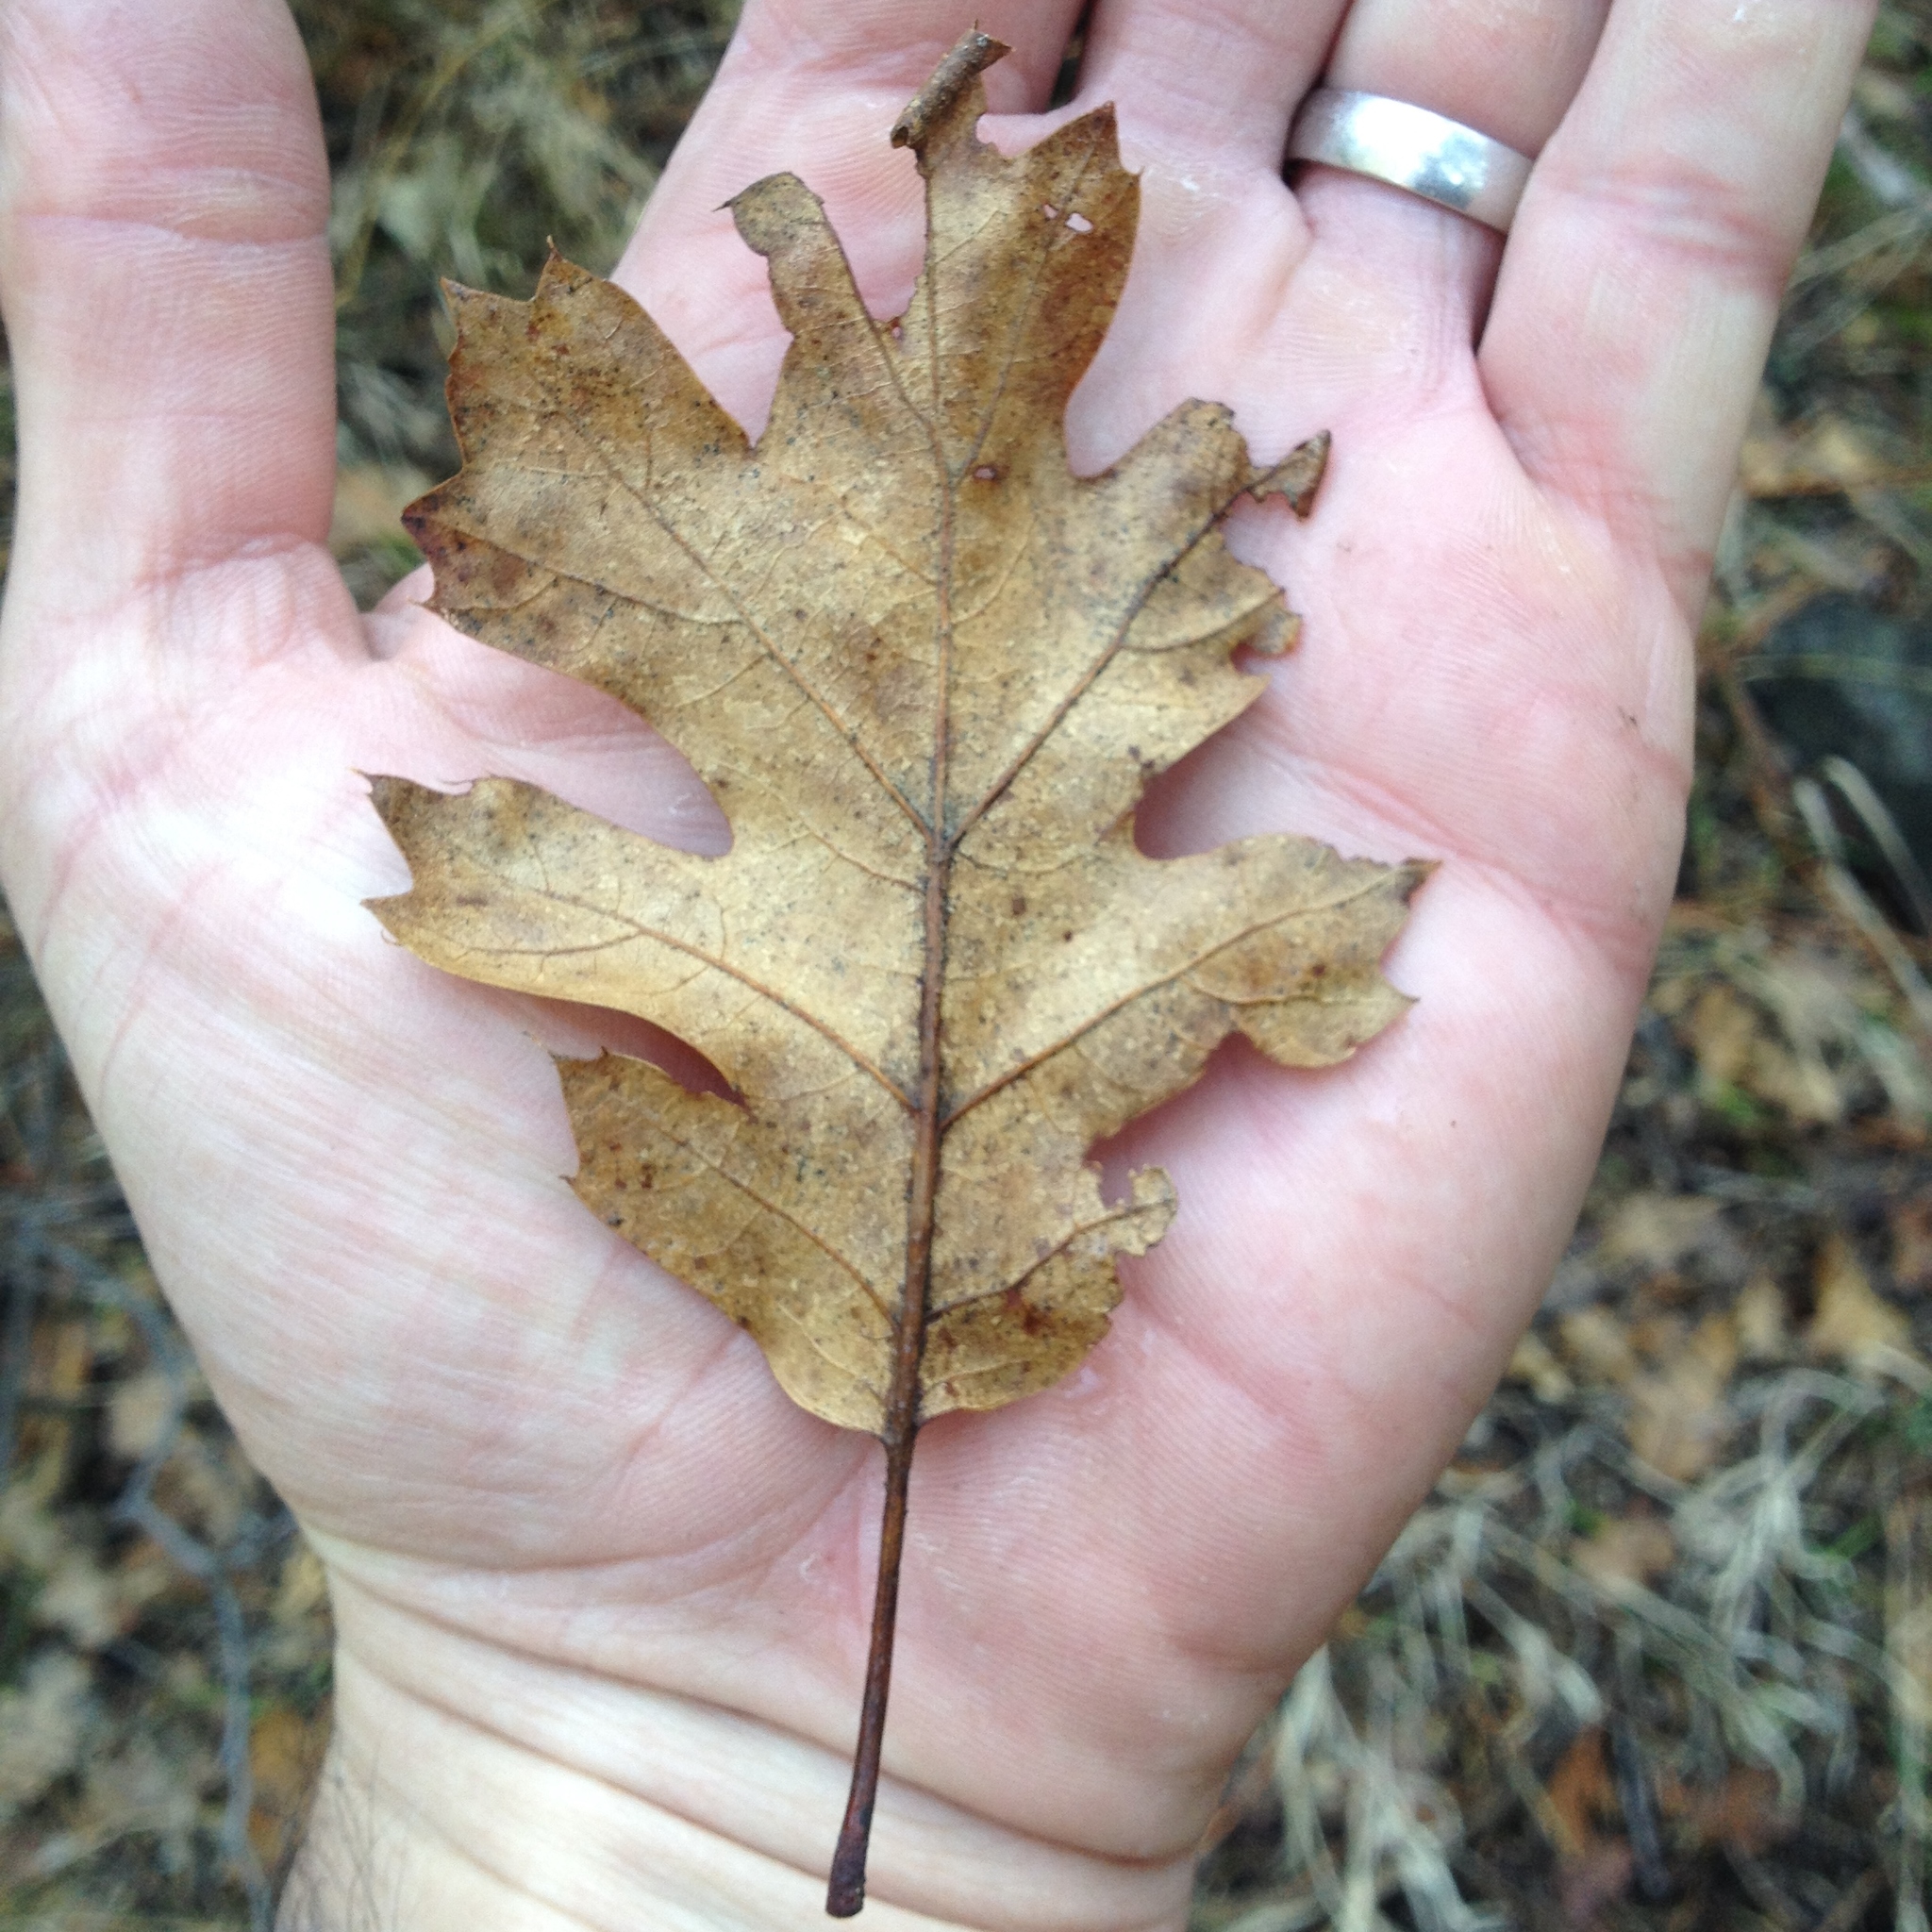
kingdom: Plantae
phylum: Tracheophyta
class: Magnoliopsida
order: Fagales
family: Fagaceae
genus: Quercus
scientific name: Quercus kelloggii
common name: California black oak
